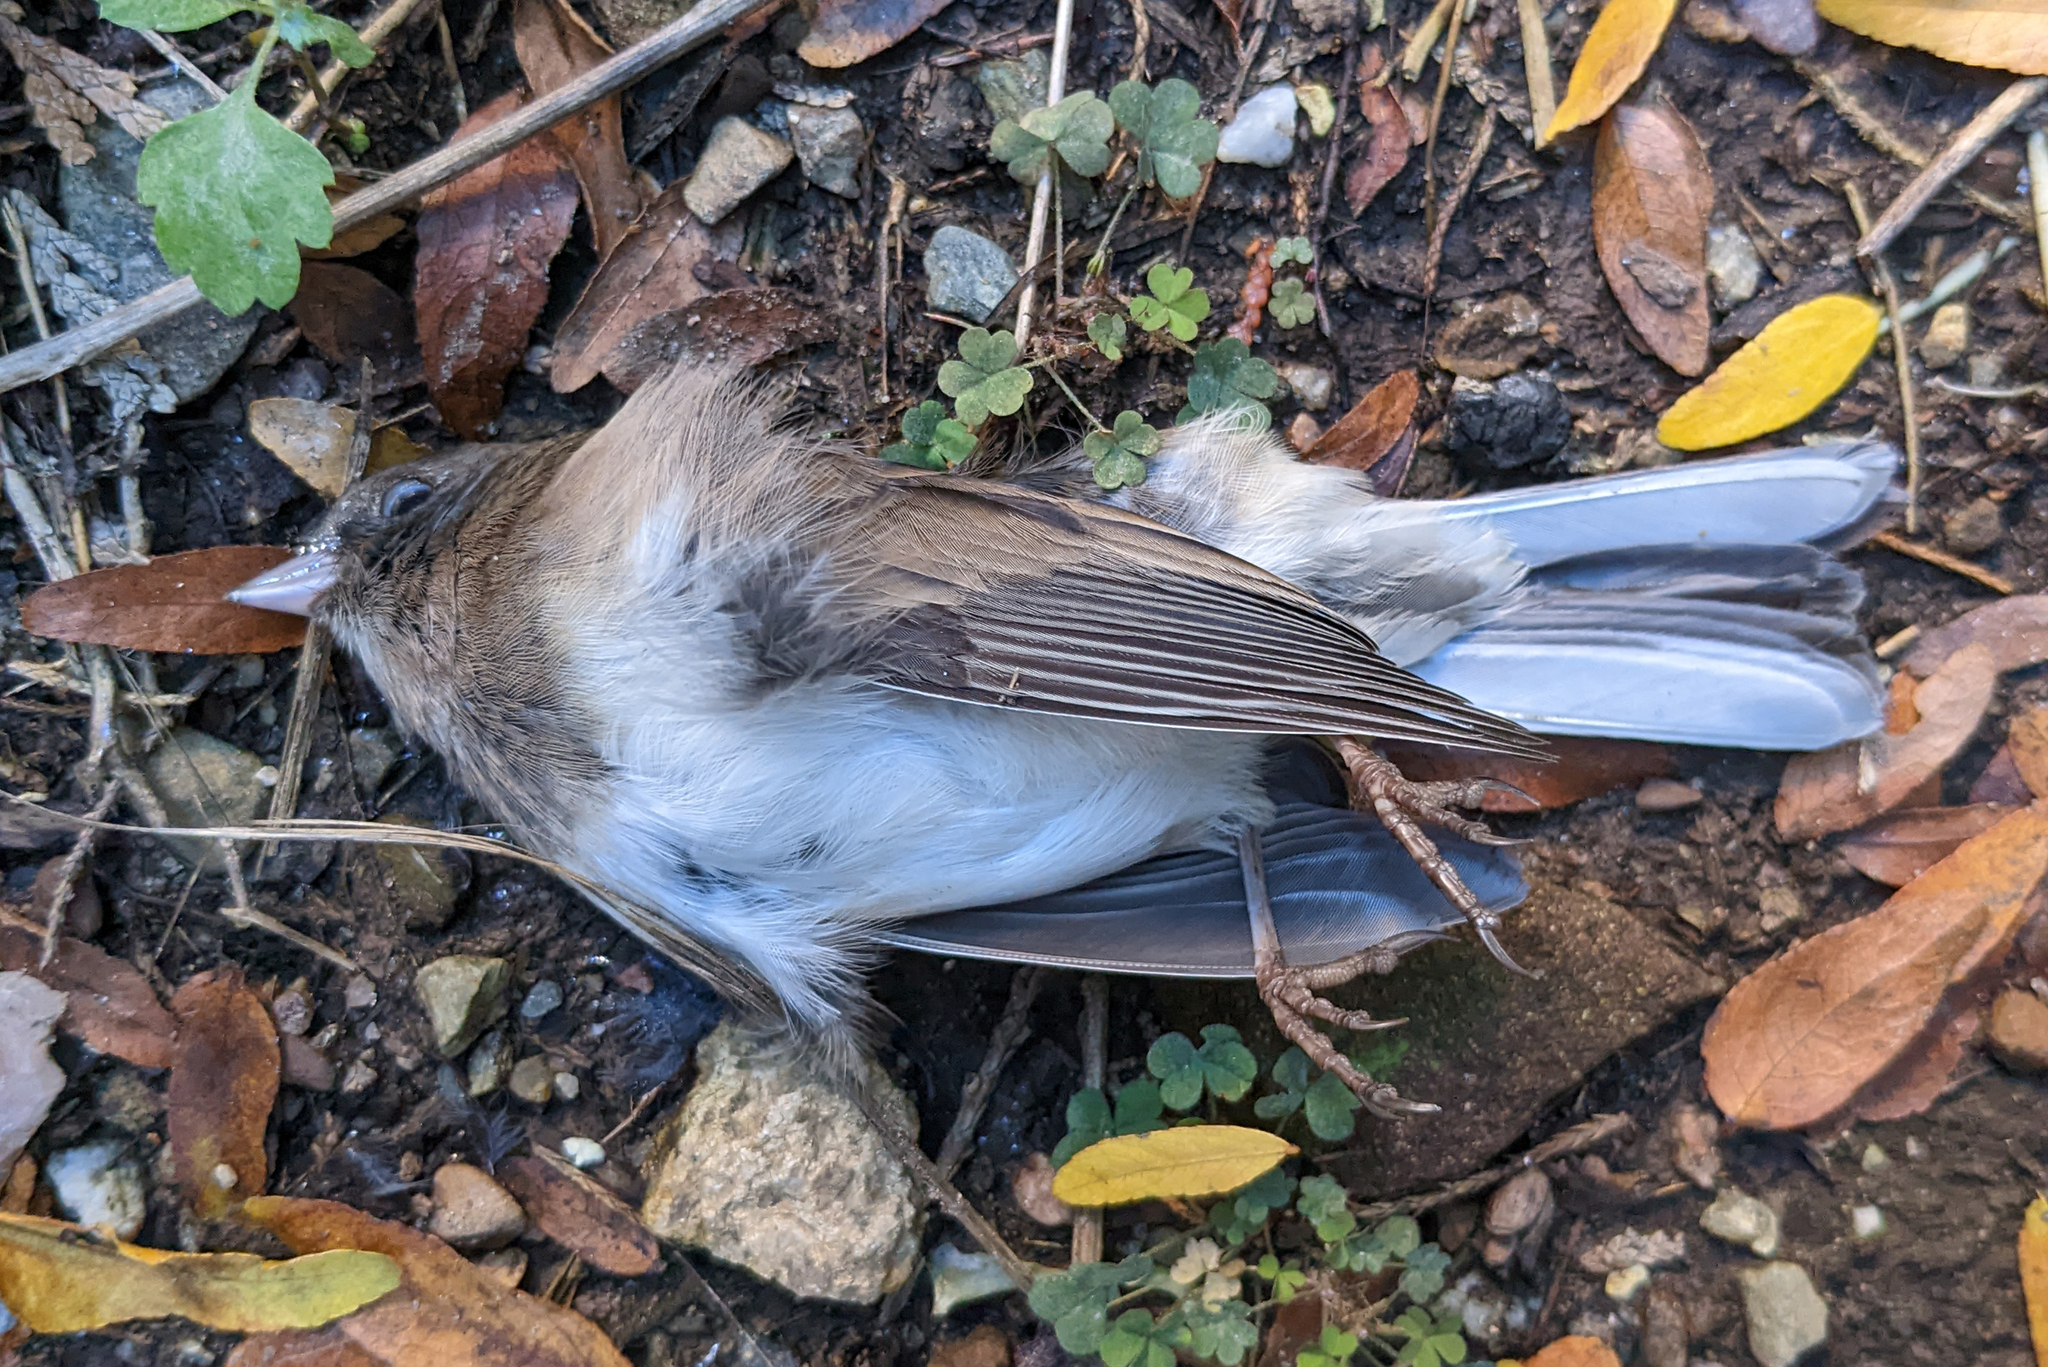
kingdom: Animalia
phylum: Chordata
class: Aves
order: Passeriformes
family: Passerellidae
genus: Junco
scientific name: Junco hyemalis
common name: Dark-eyed junco
